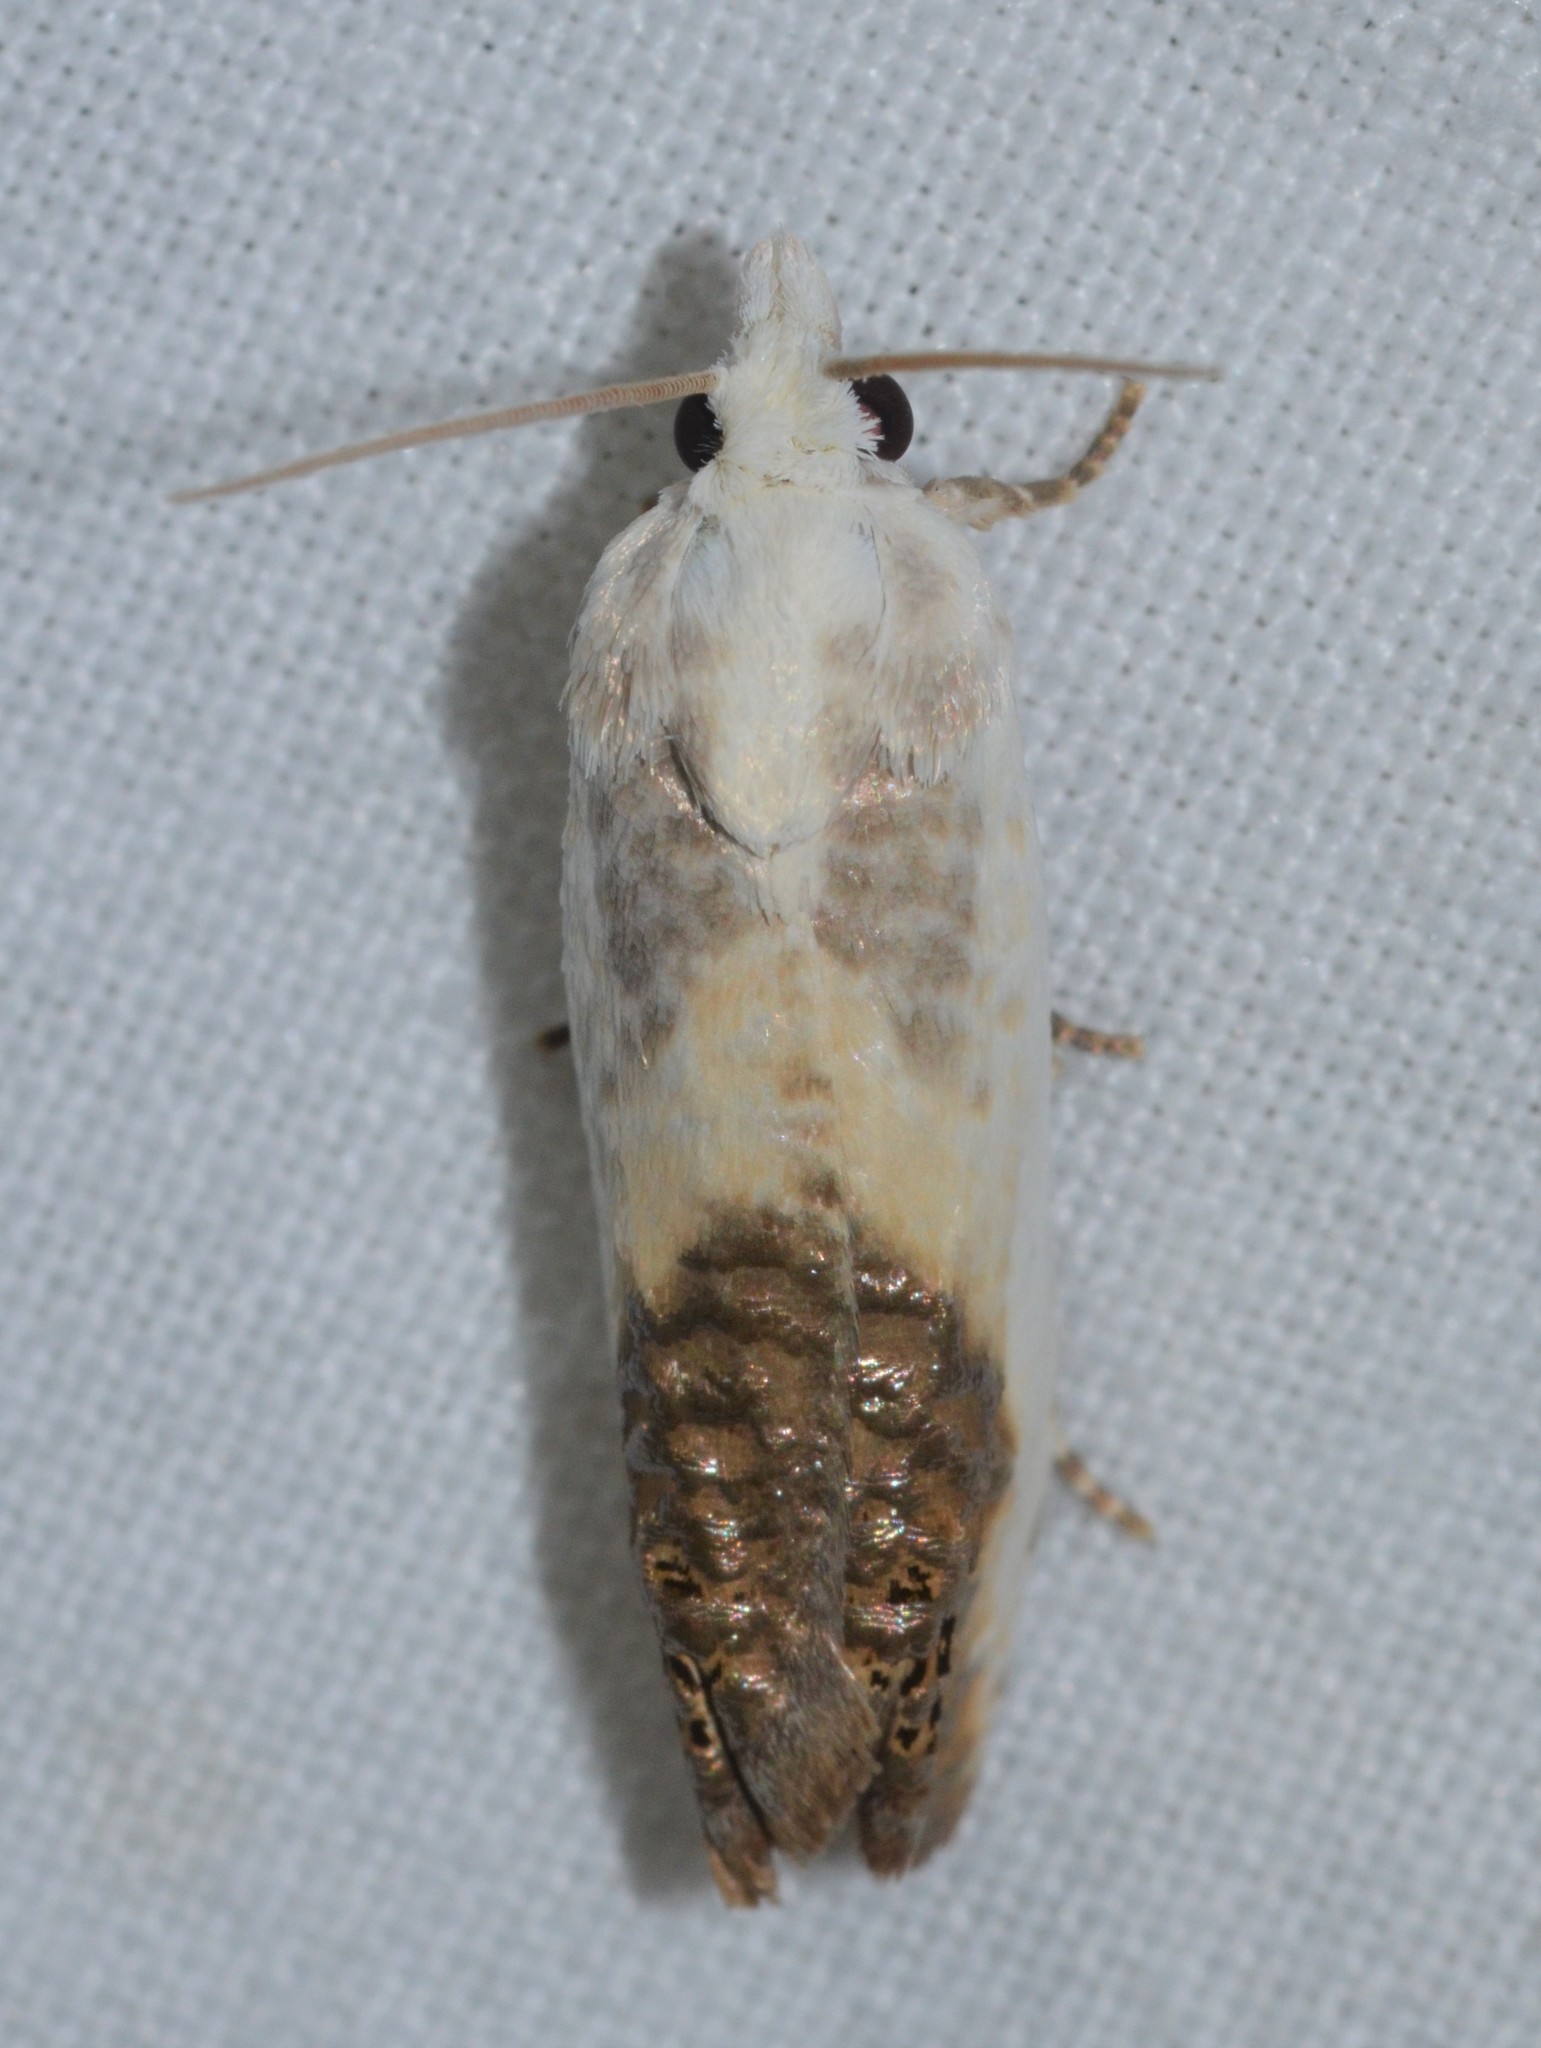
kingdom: Animalia
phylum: Arthropoda
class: Insecta
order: Lepidoptera
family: Tortricidae
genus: Eucosma
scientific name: Eucosma giganteana
